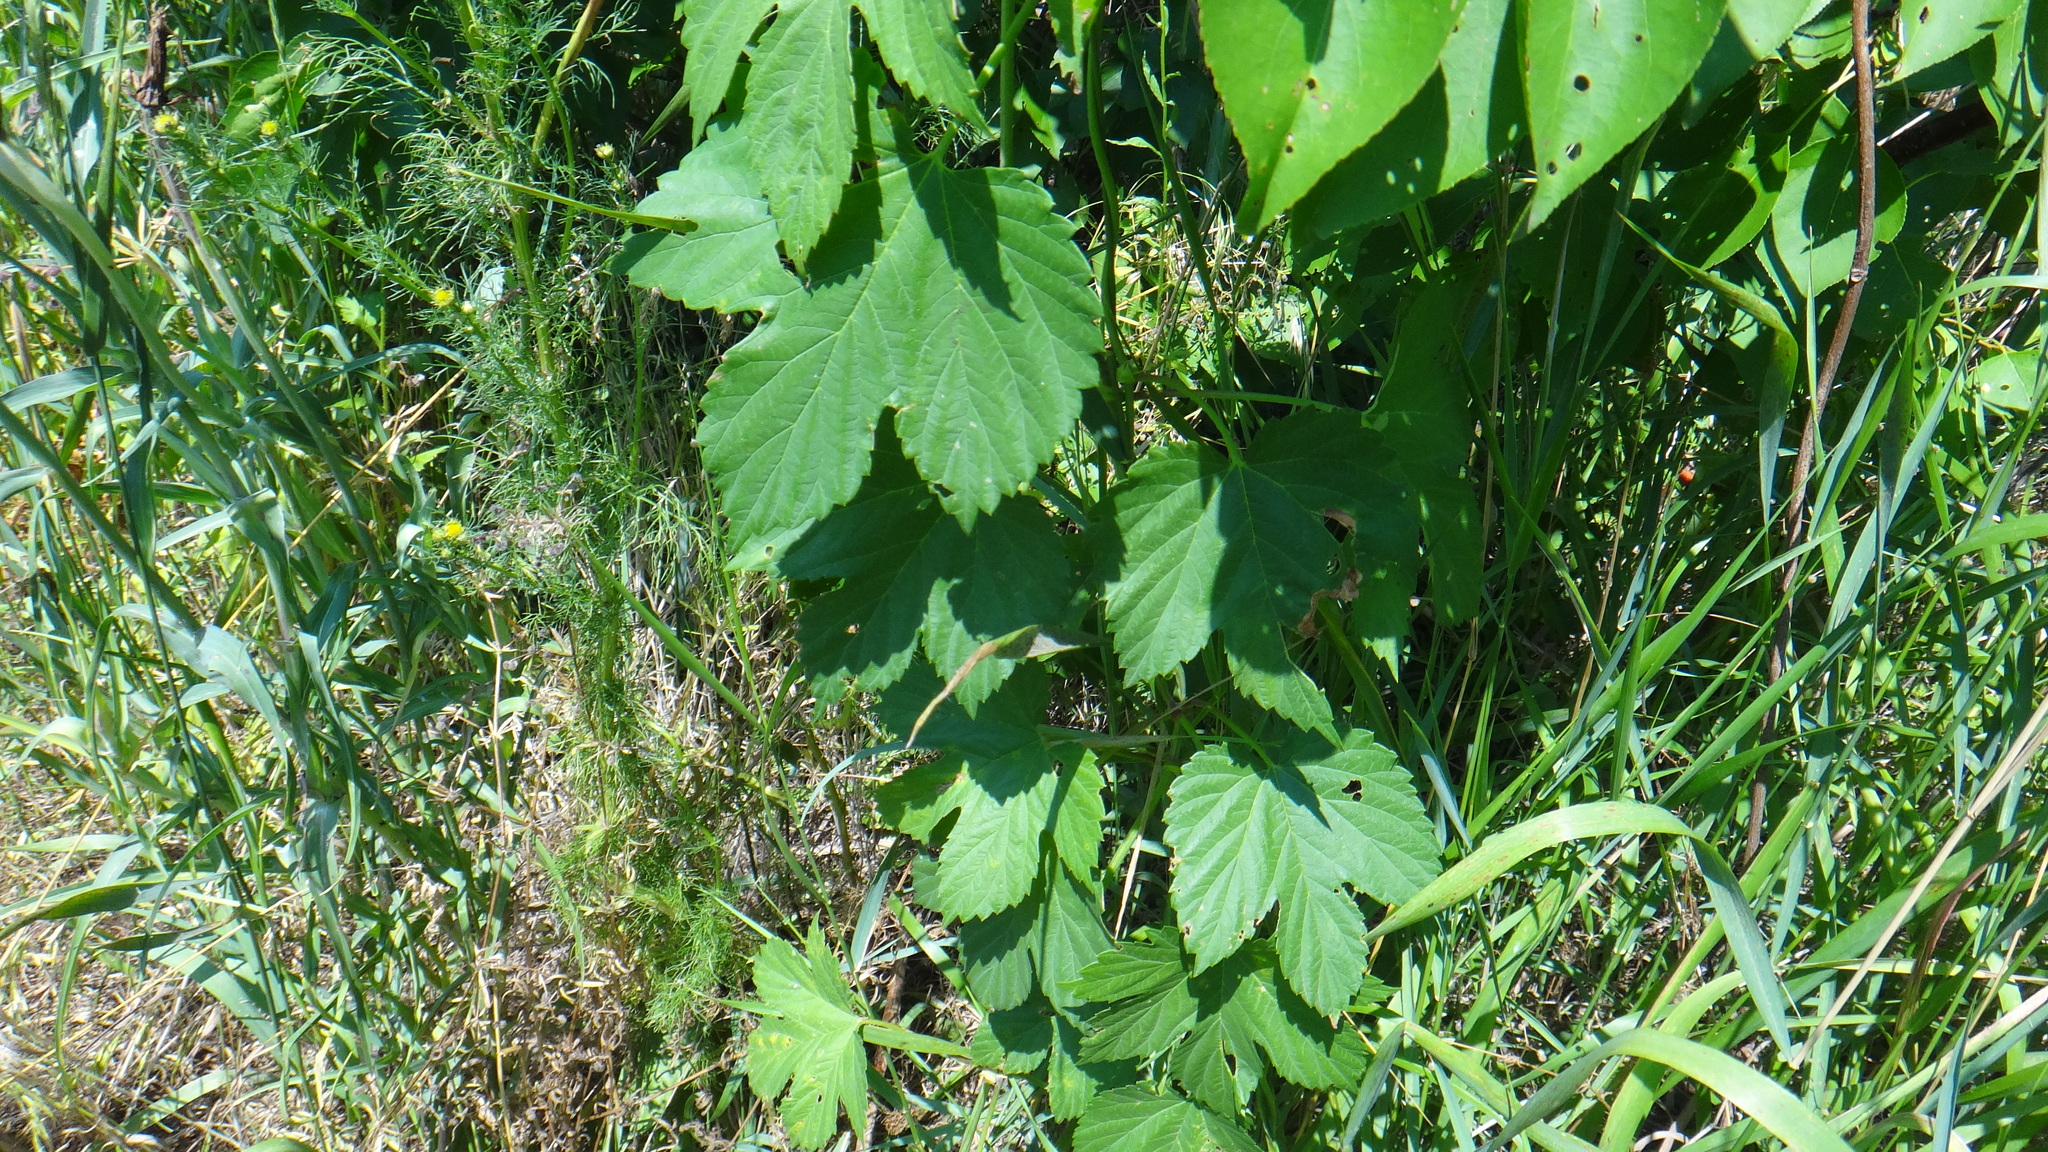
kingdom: Plantae
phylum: Tracheophyta
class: Magnoliopsida
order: Rosales
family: Cannabaceae
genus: Humulus
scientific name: Humulus lupulus
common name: Hop
